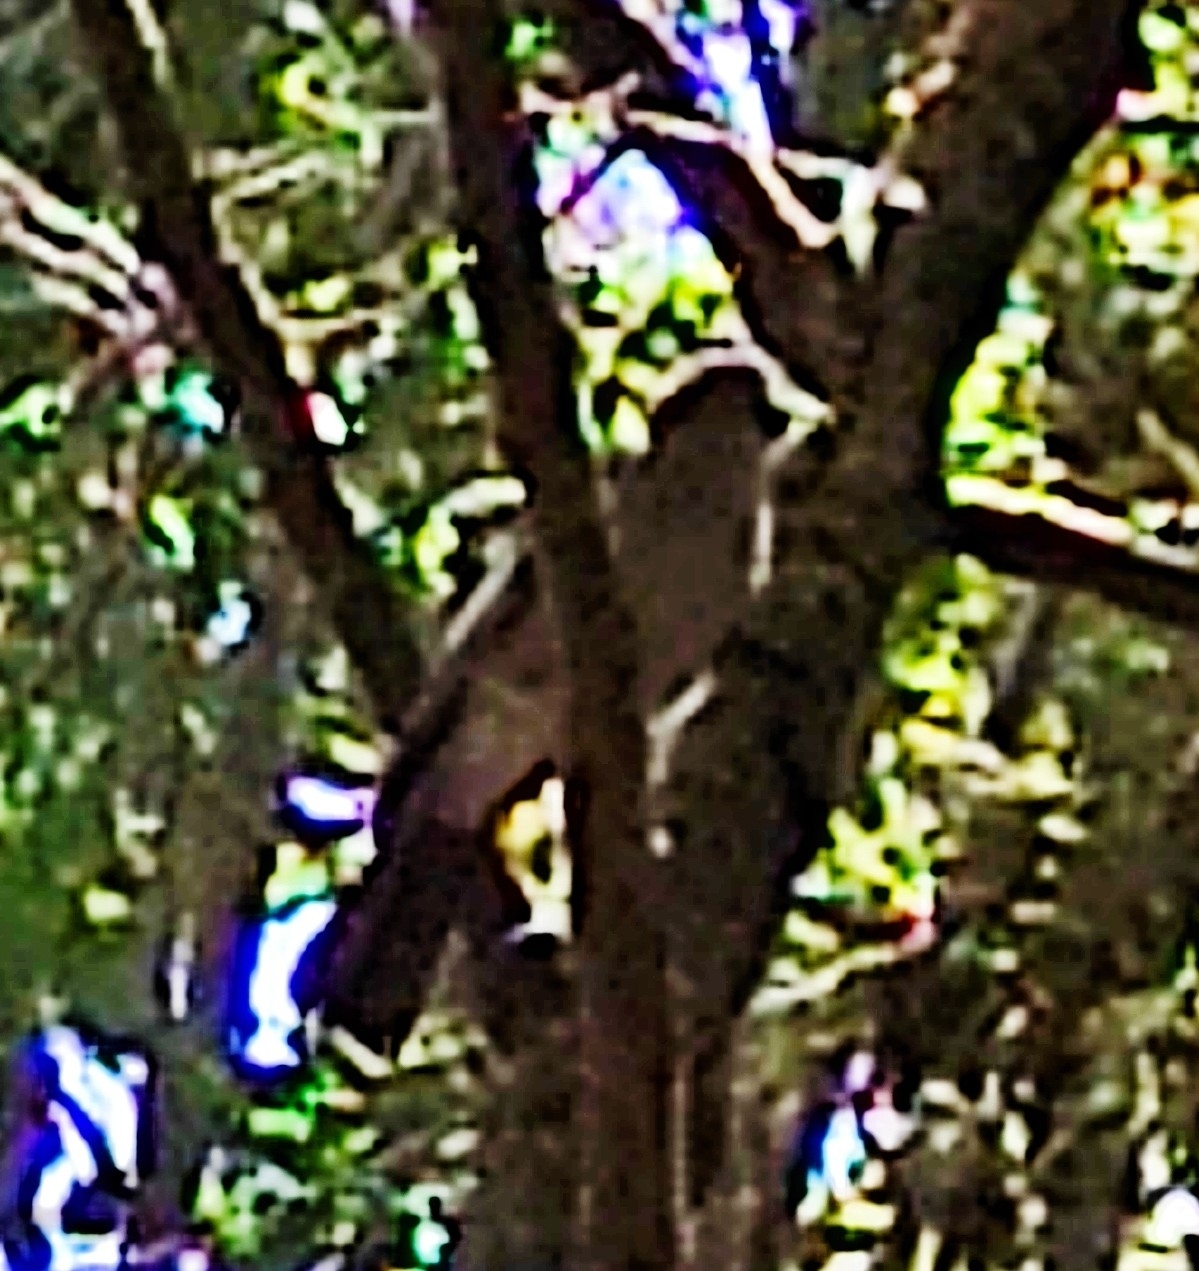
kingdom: Animalia
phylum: Chordata
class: Aves
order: Passeriformes
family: Corvidae
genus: Garrulus
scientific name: Garrulus glandarius
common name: Eurasian jay
